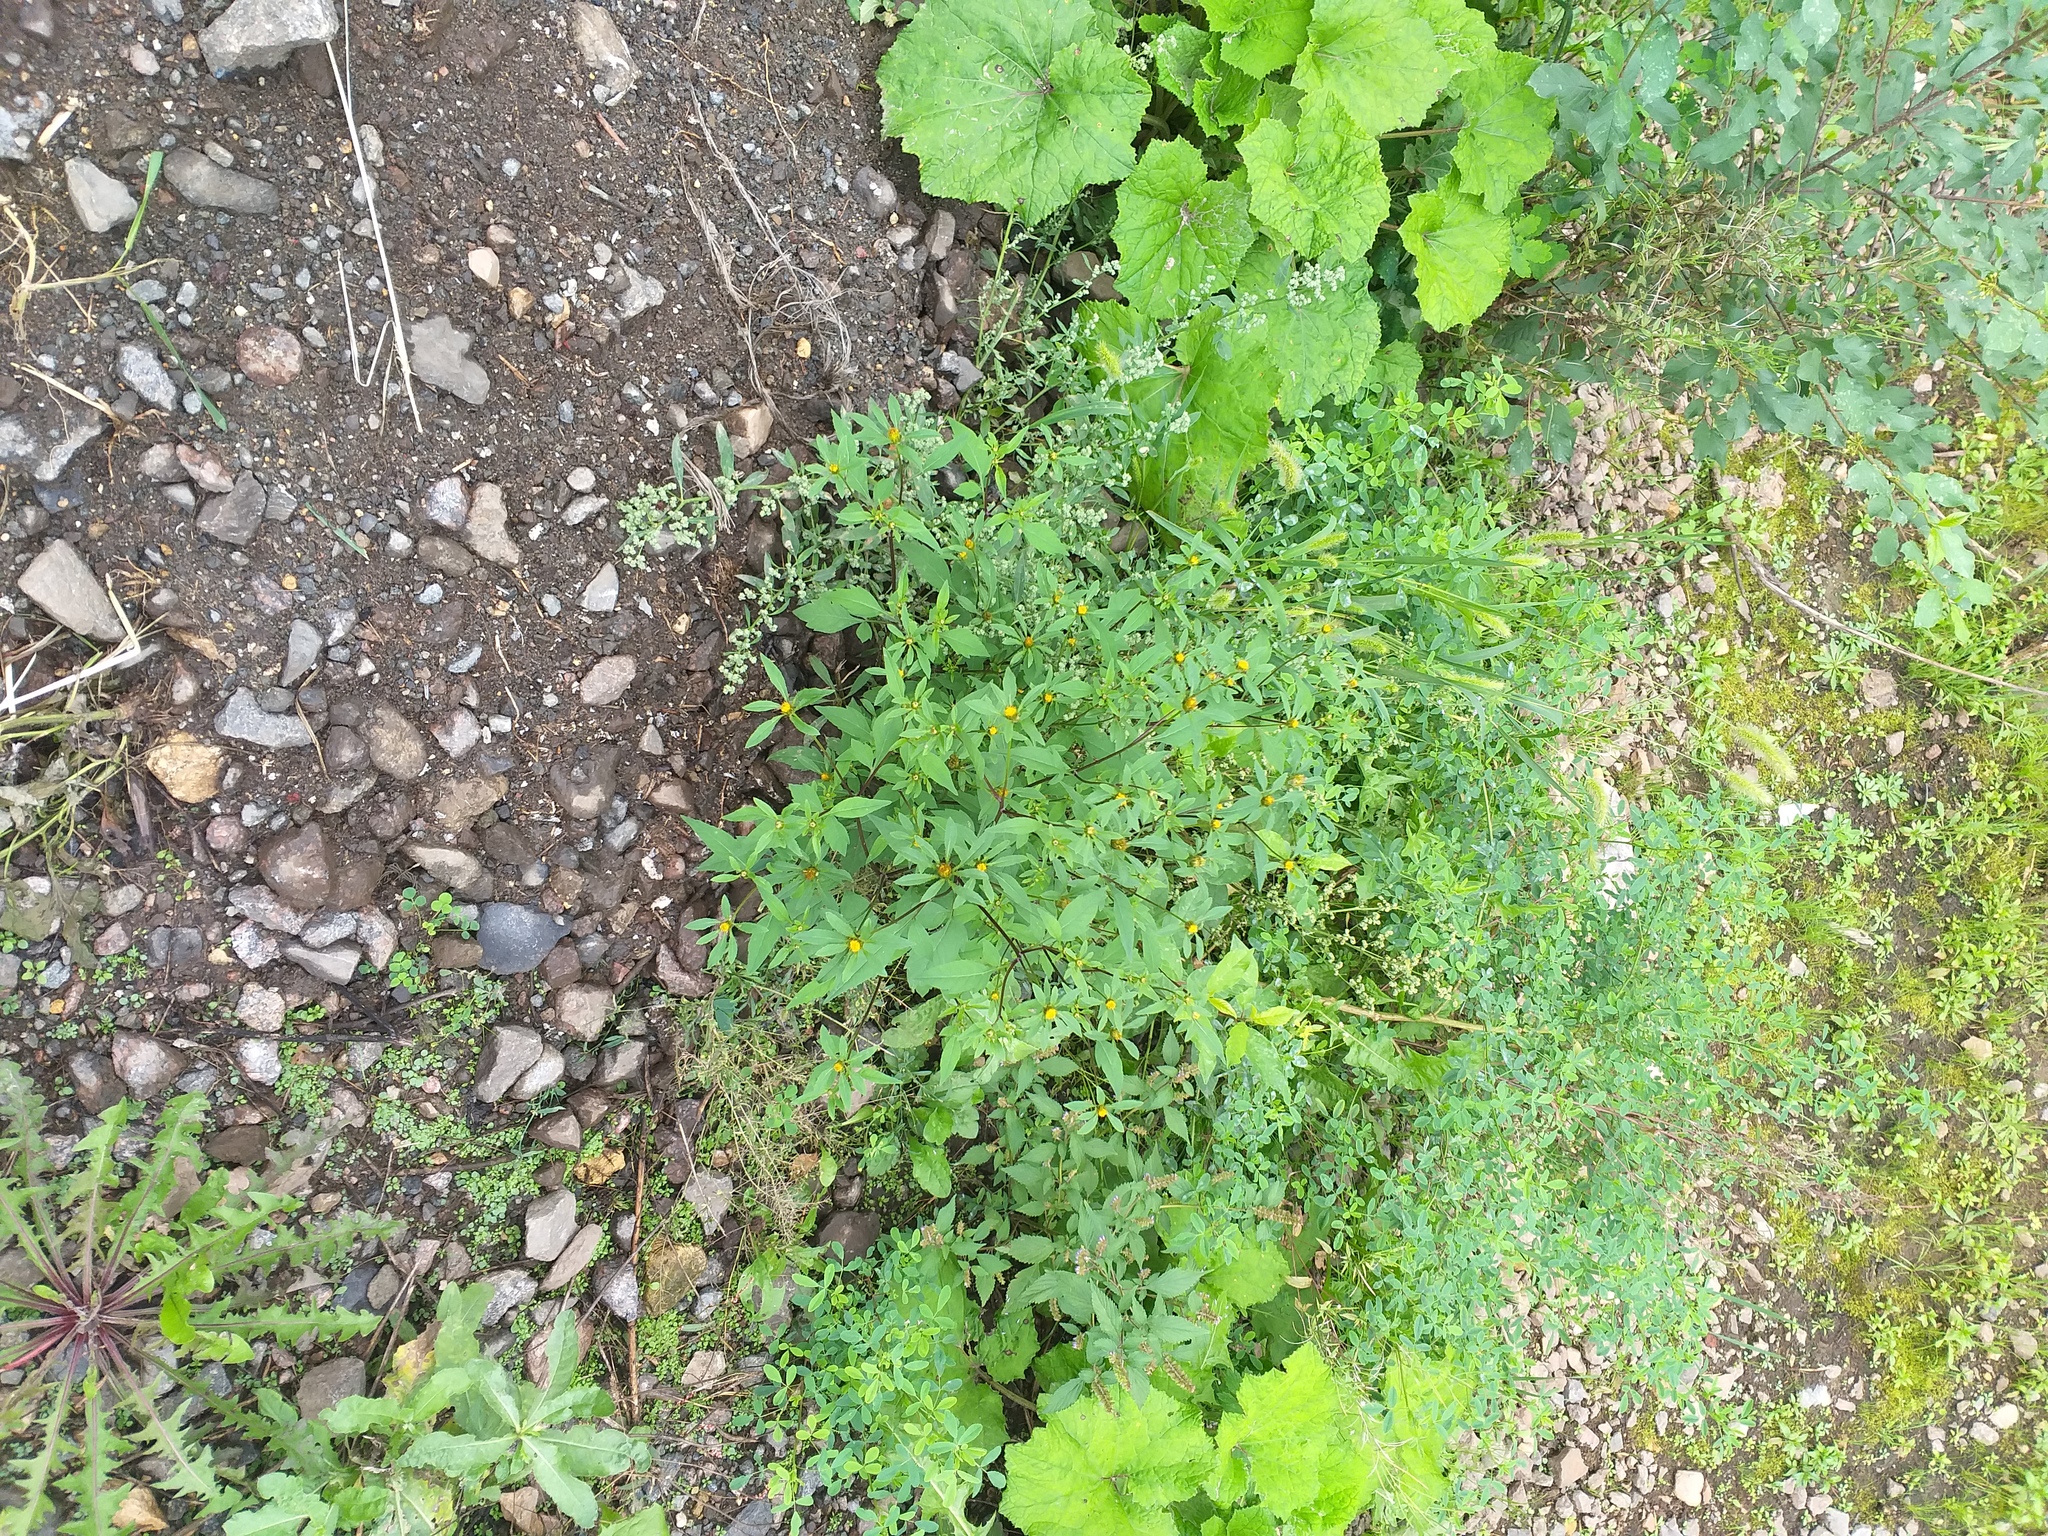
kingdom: Plantae
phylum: Tracheophyta
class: Magnoliopsida
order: Asterales
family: Asteraceae
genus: Bidens
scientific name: Bidens frondosa
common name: Beggarticks
